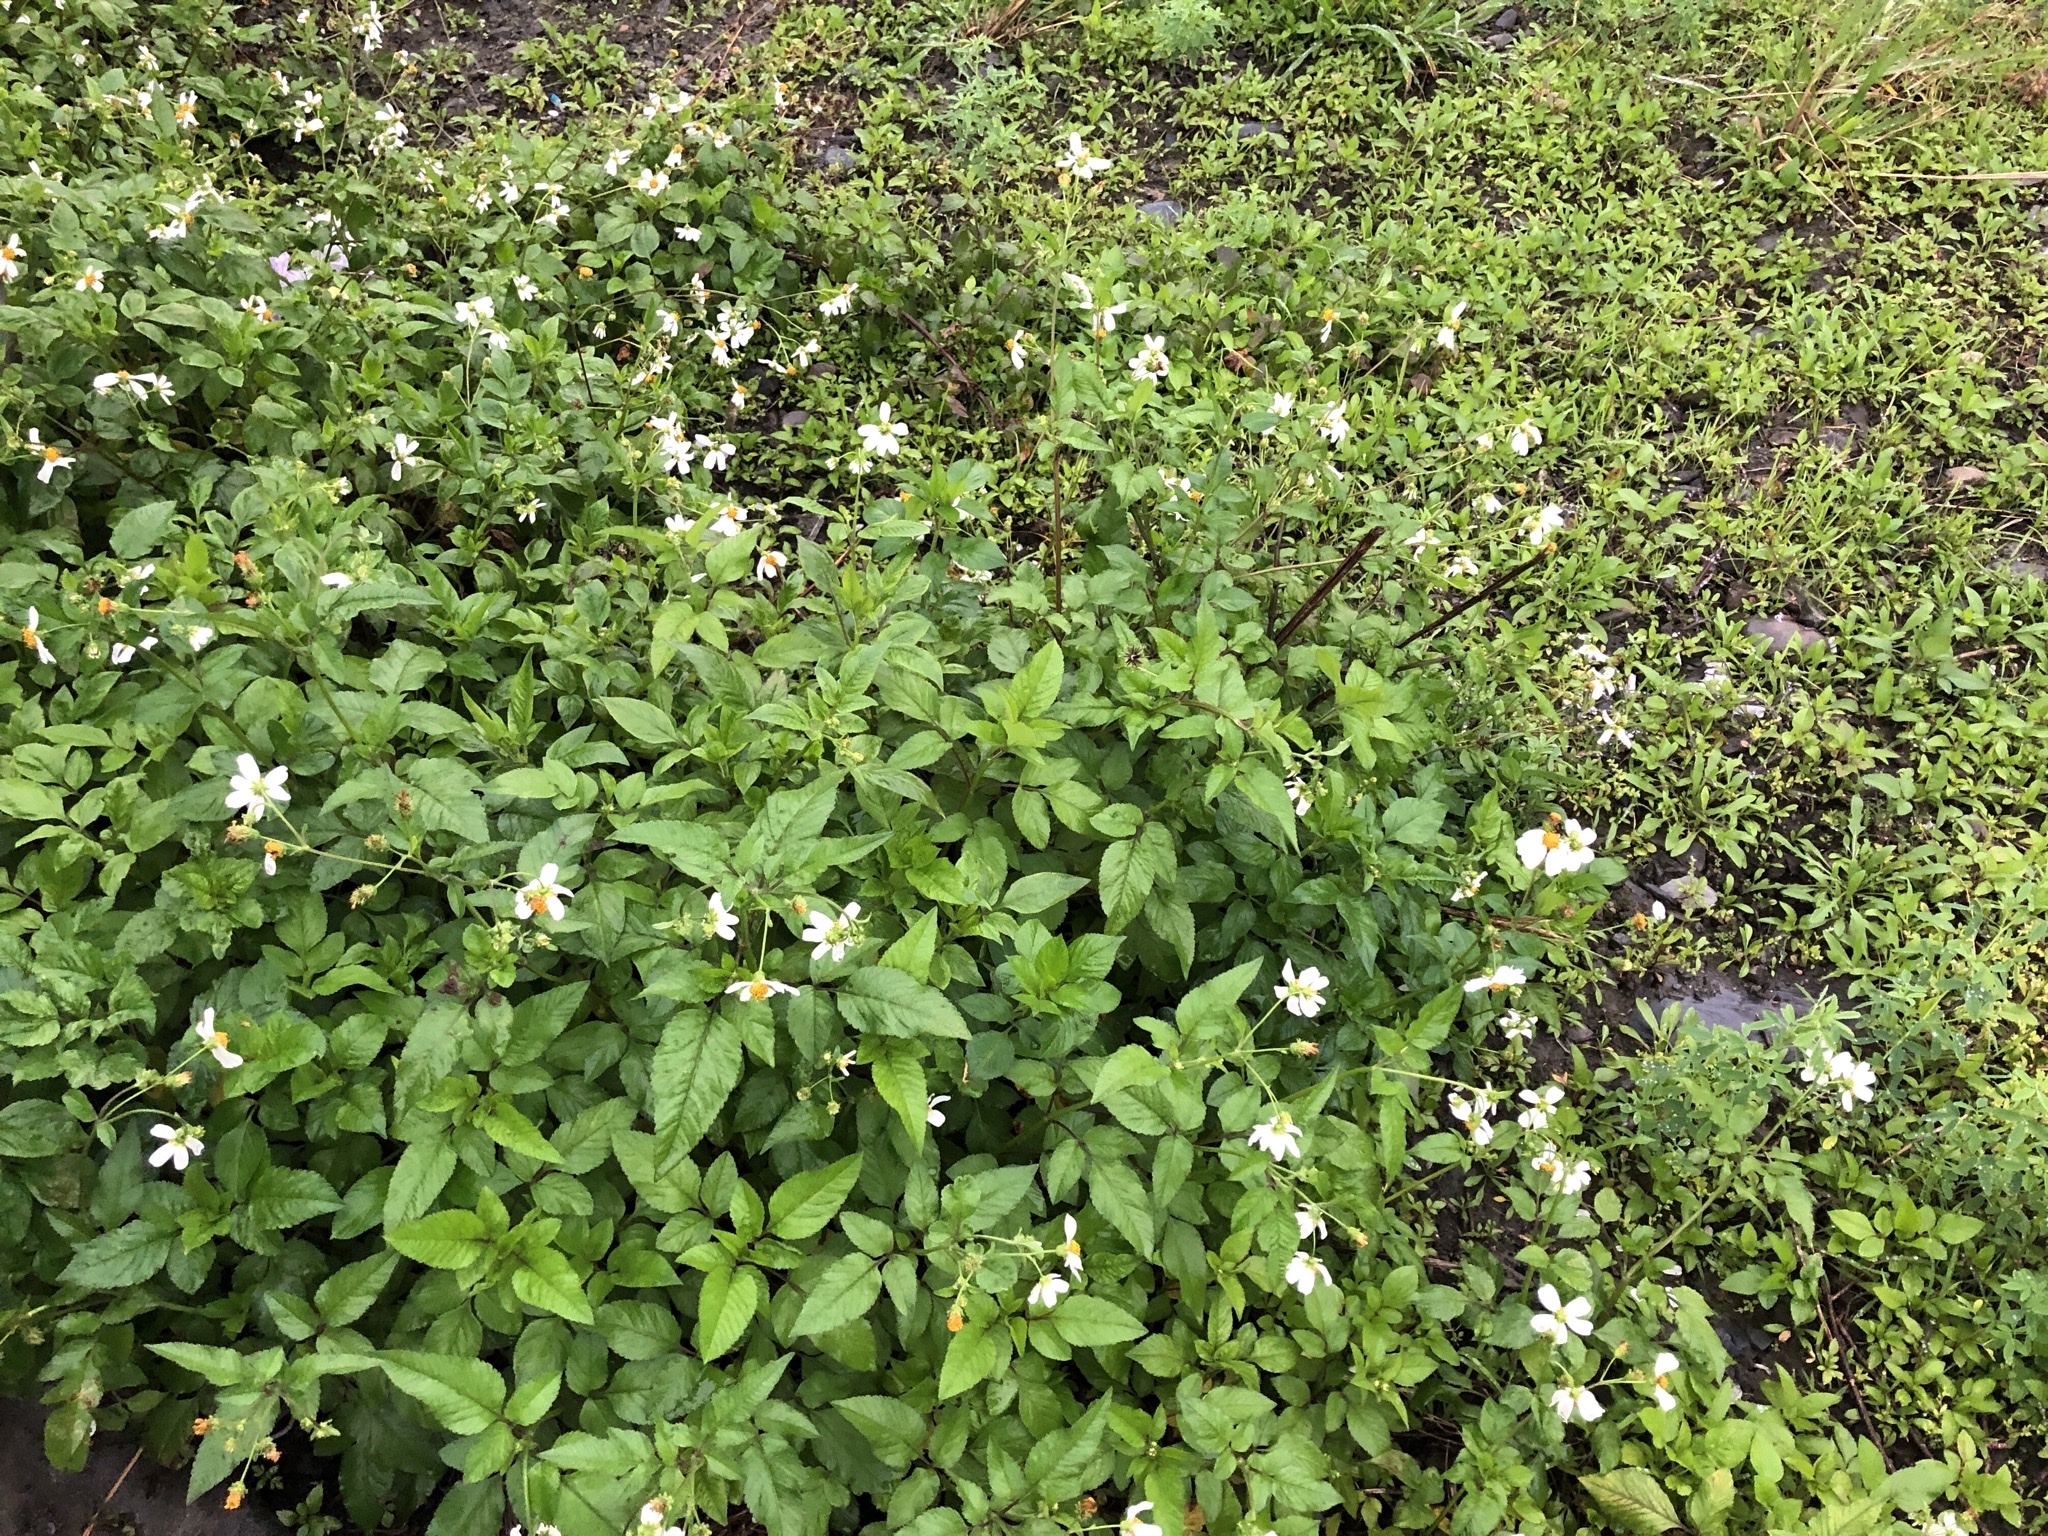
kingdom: Plantae
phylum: Tracheophyta
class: Magnoliopsida
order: Asterales
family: Asteraceae
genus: Bidens
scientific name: Bidens alba
